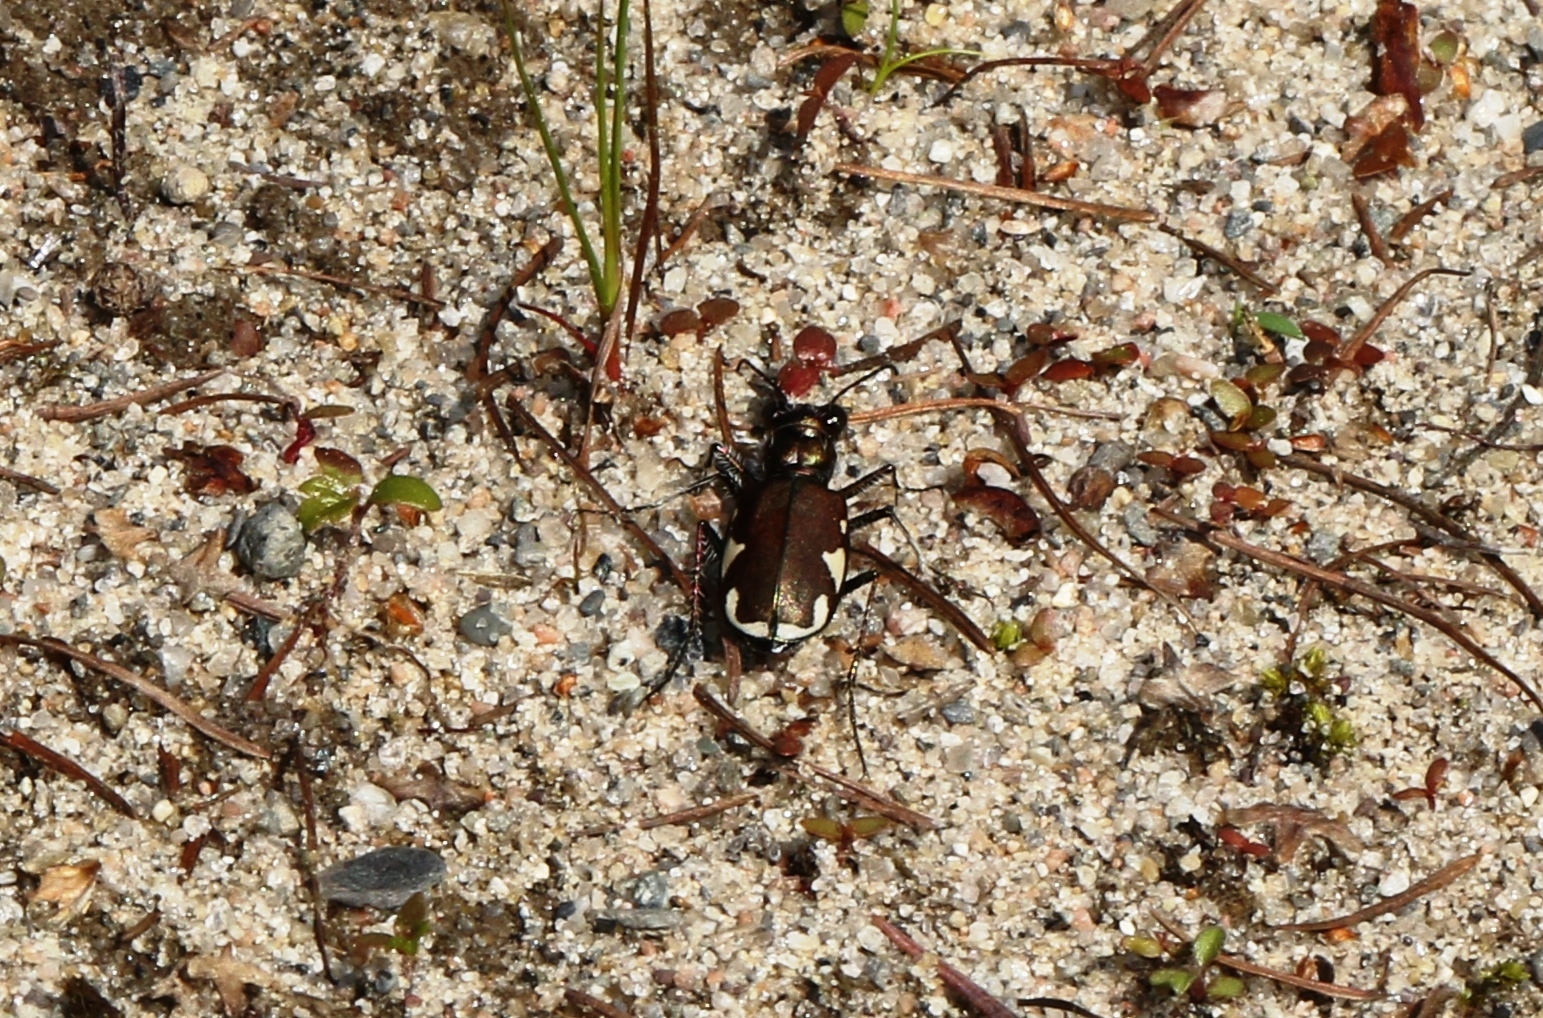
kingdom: Animalia
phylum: Arthropoda
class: Insecta
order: Coleoptera
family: Carabidae
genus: Cicindela
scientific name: Cicindela scutellaris
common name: Festive tiger beetle
